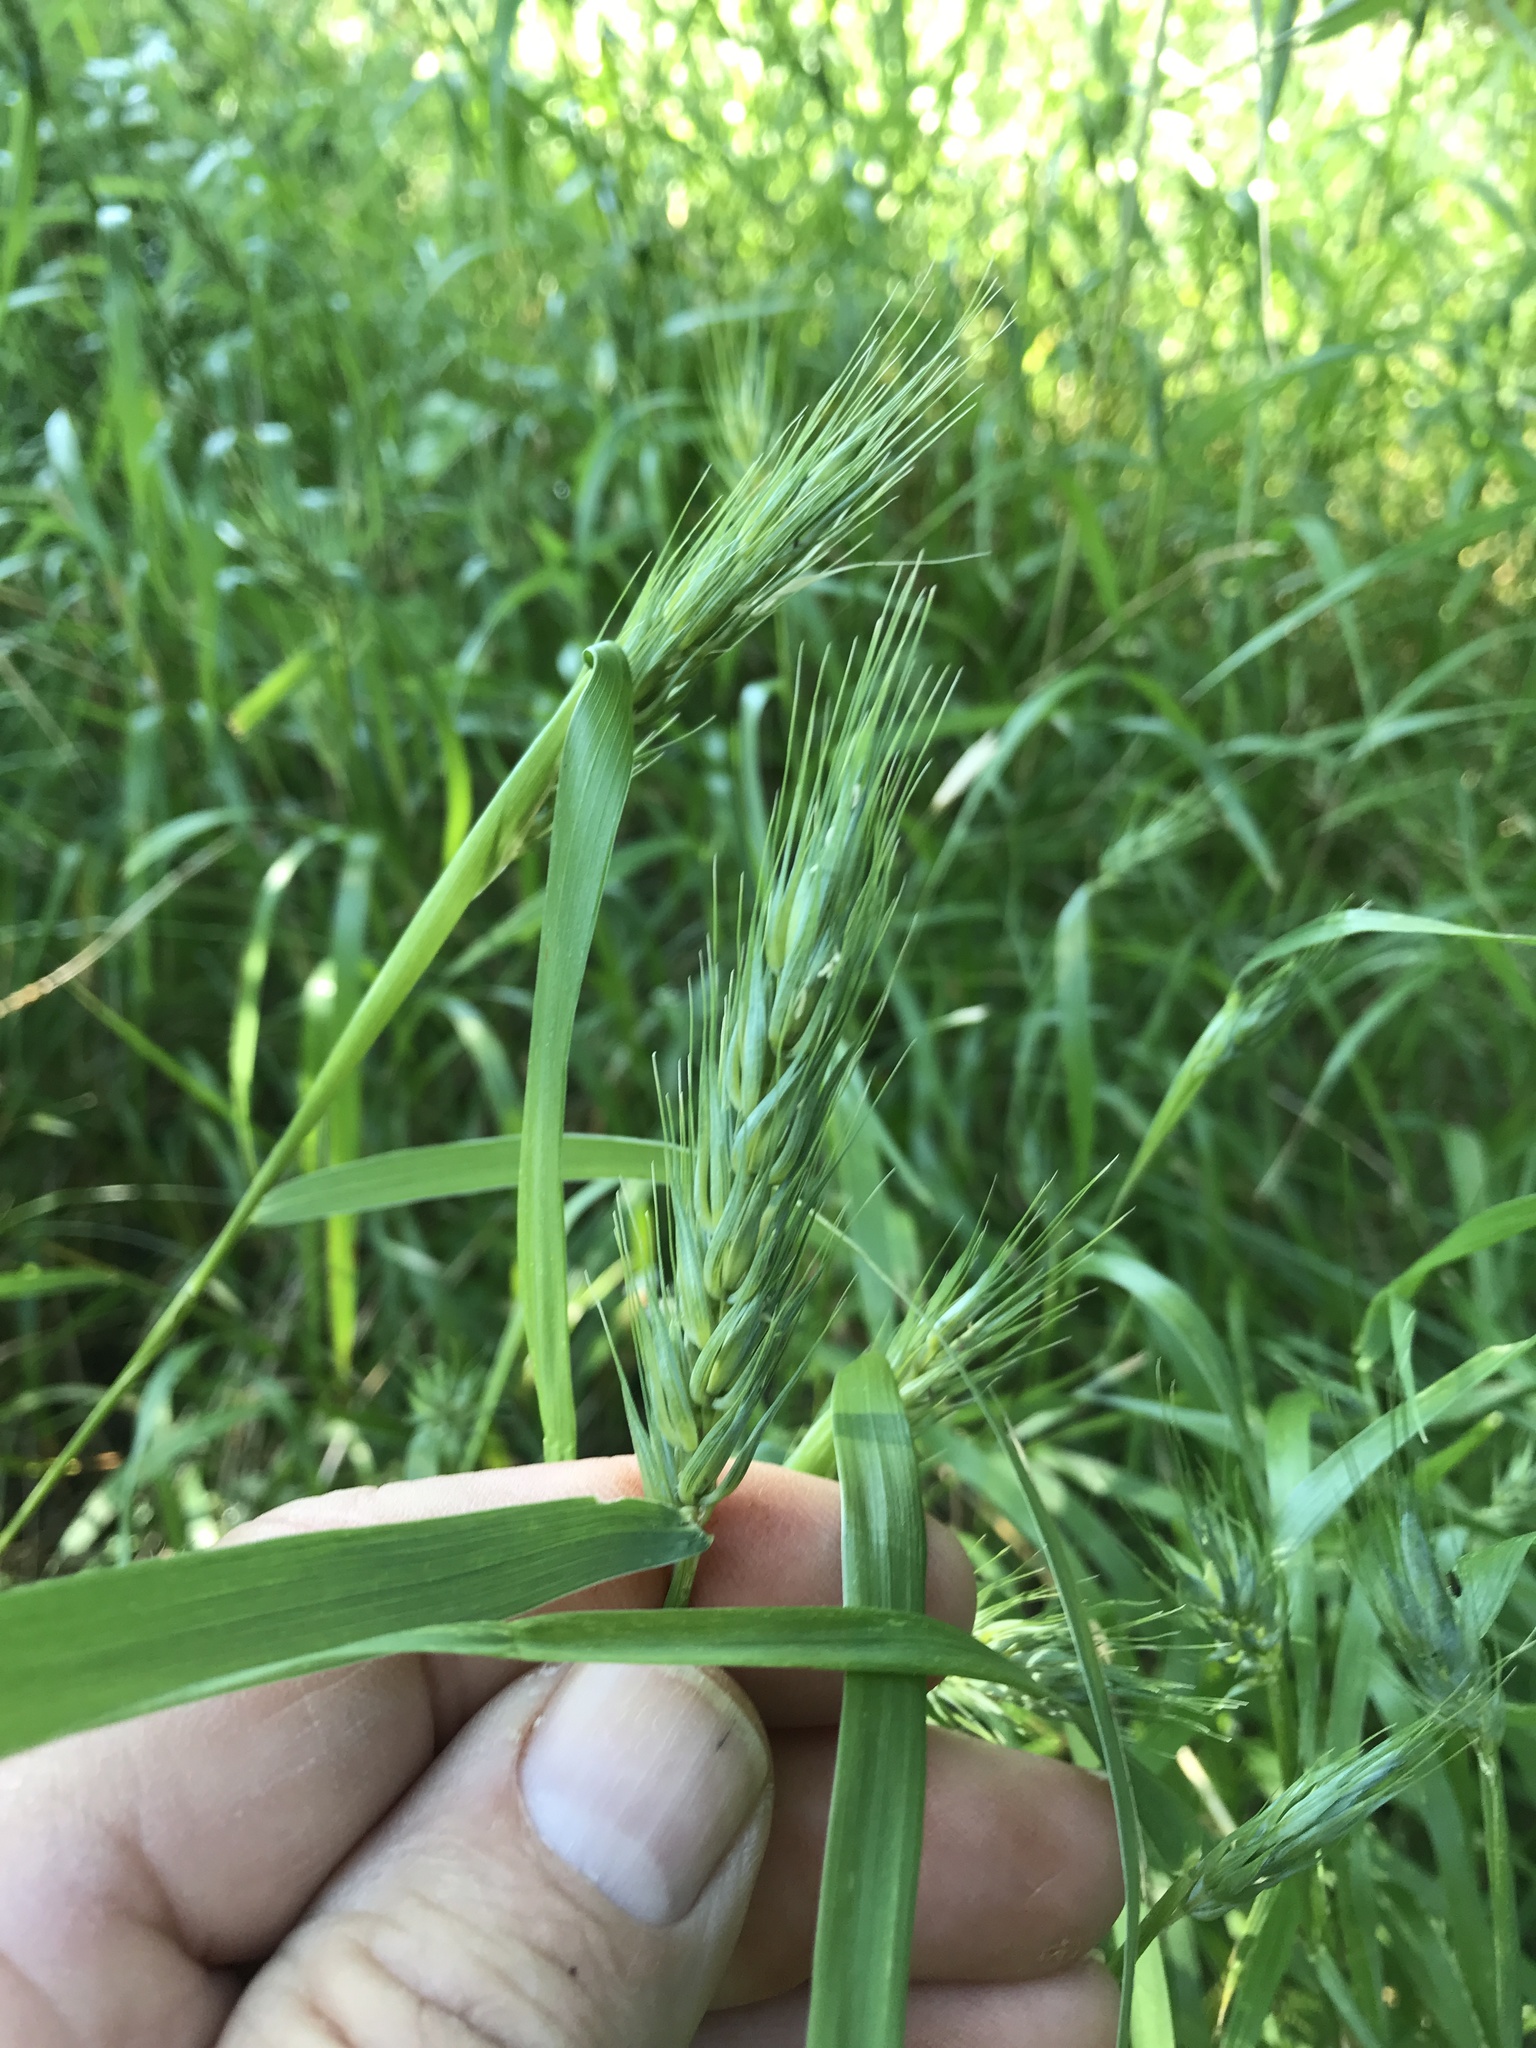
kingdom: Plantae
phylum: Tracheophyta
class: Liliopsida
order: Poales
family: Poaceae
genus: Elymus
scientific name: Elymus virginicus
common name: Common eastern wildrye
